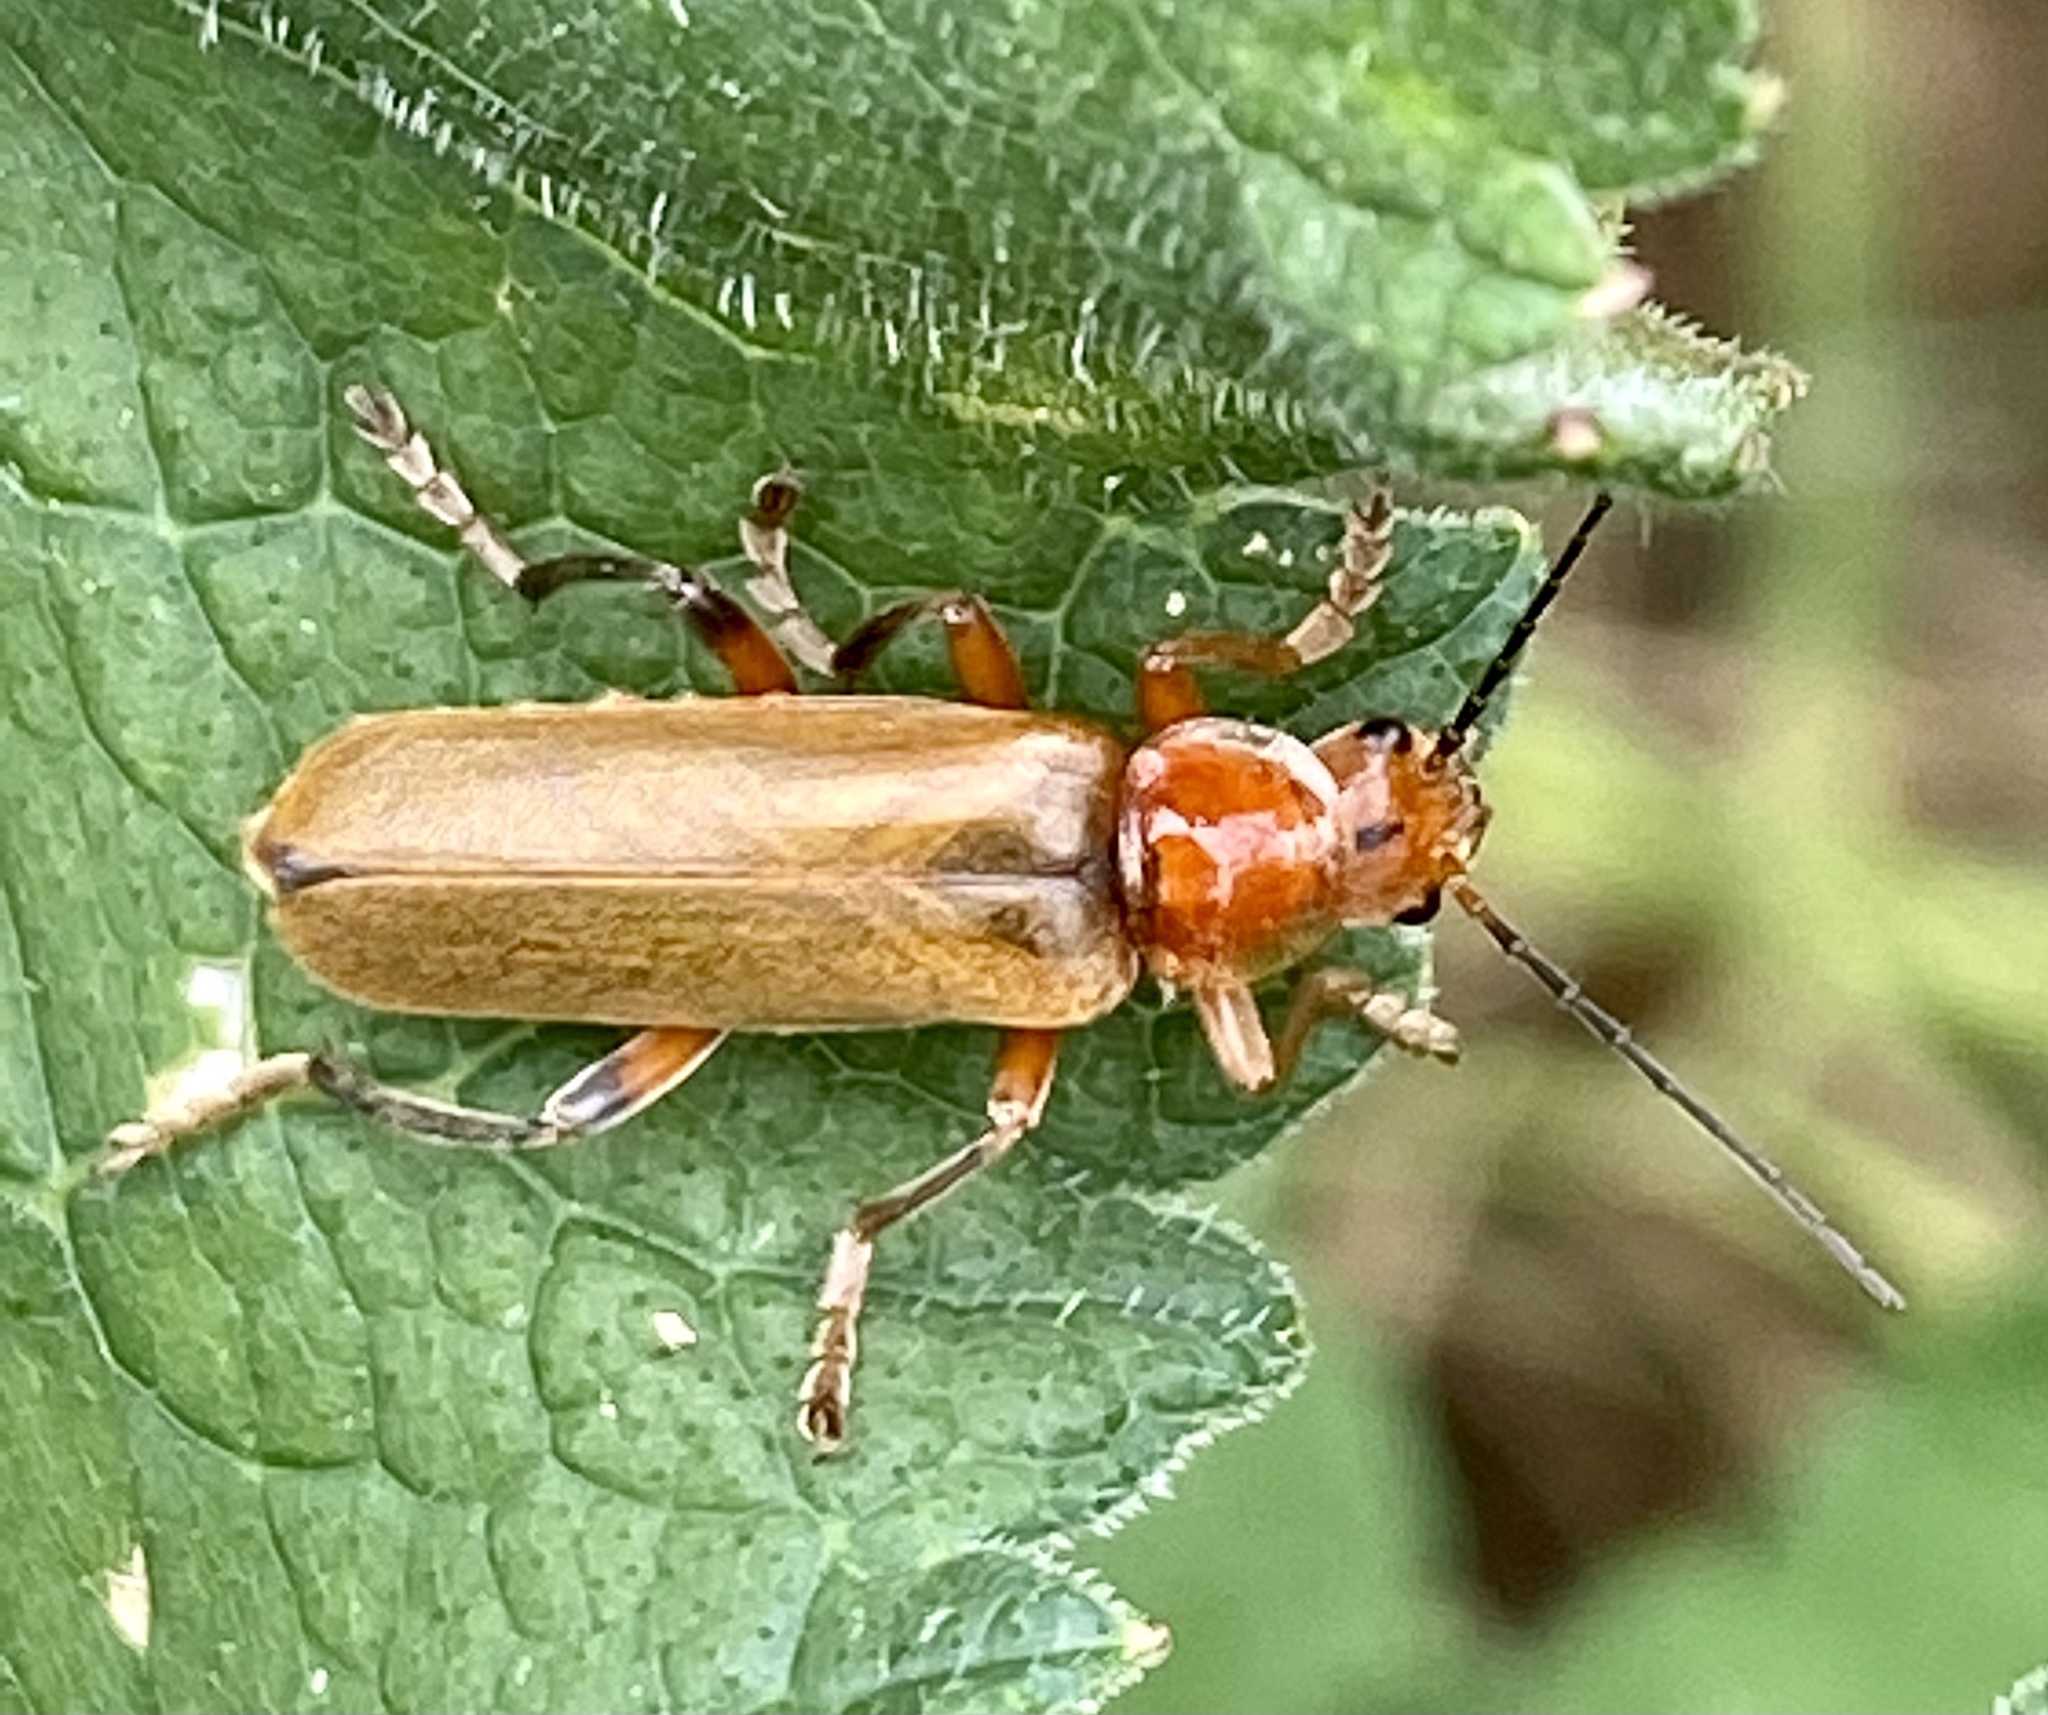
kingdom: Animalia
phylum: Arthropoda
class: Insecta
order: Coleoptera
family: Cantharidae
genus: Cantharis
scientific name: Cantharis livida
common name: Livid soldier beetle
